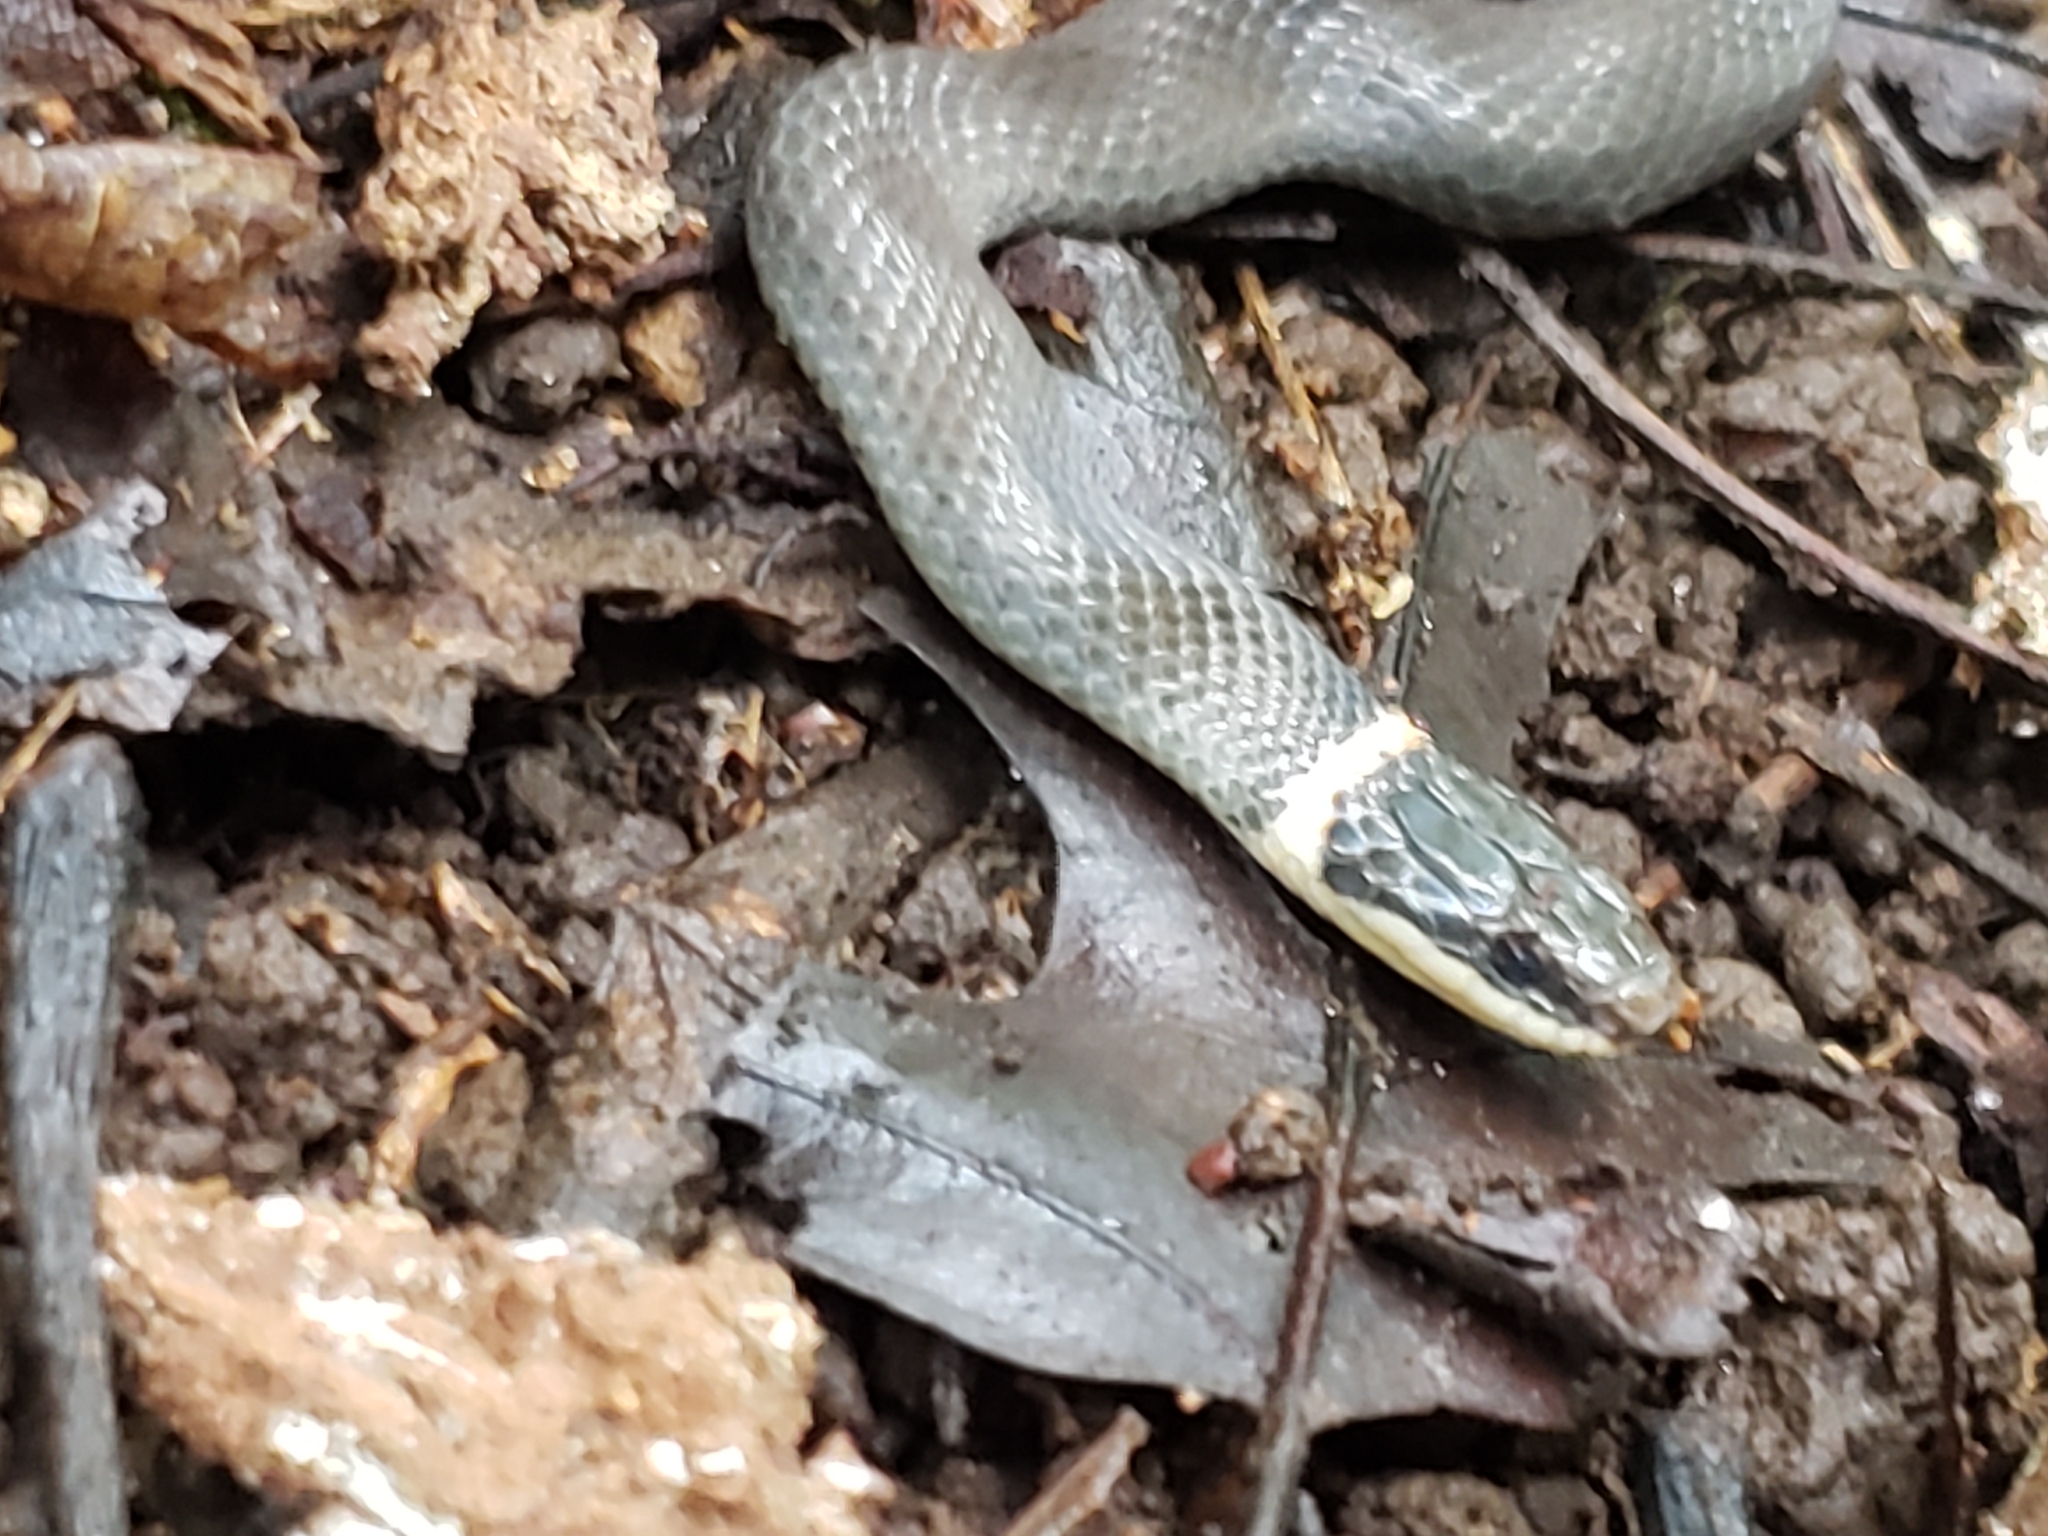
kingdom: Animalia
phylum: Chordata
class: Squamata
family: Colubridae
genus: Diadophis
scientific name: Diadophis punctatus
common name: Ringneck snake
